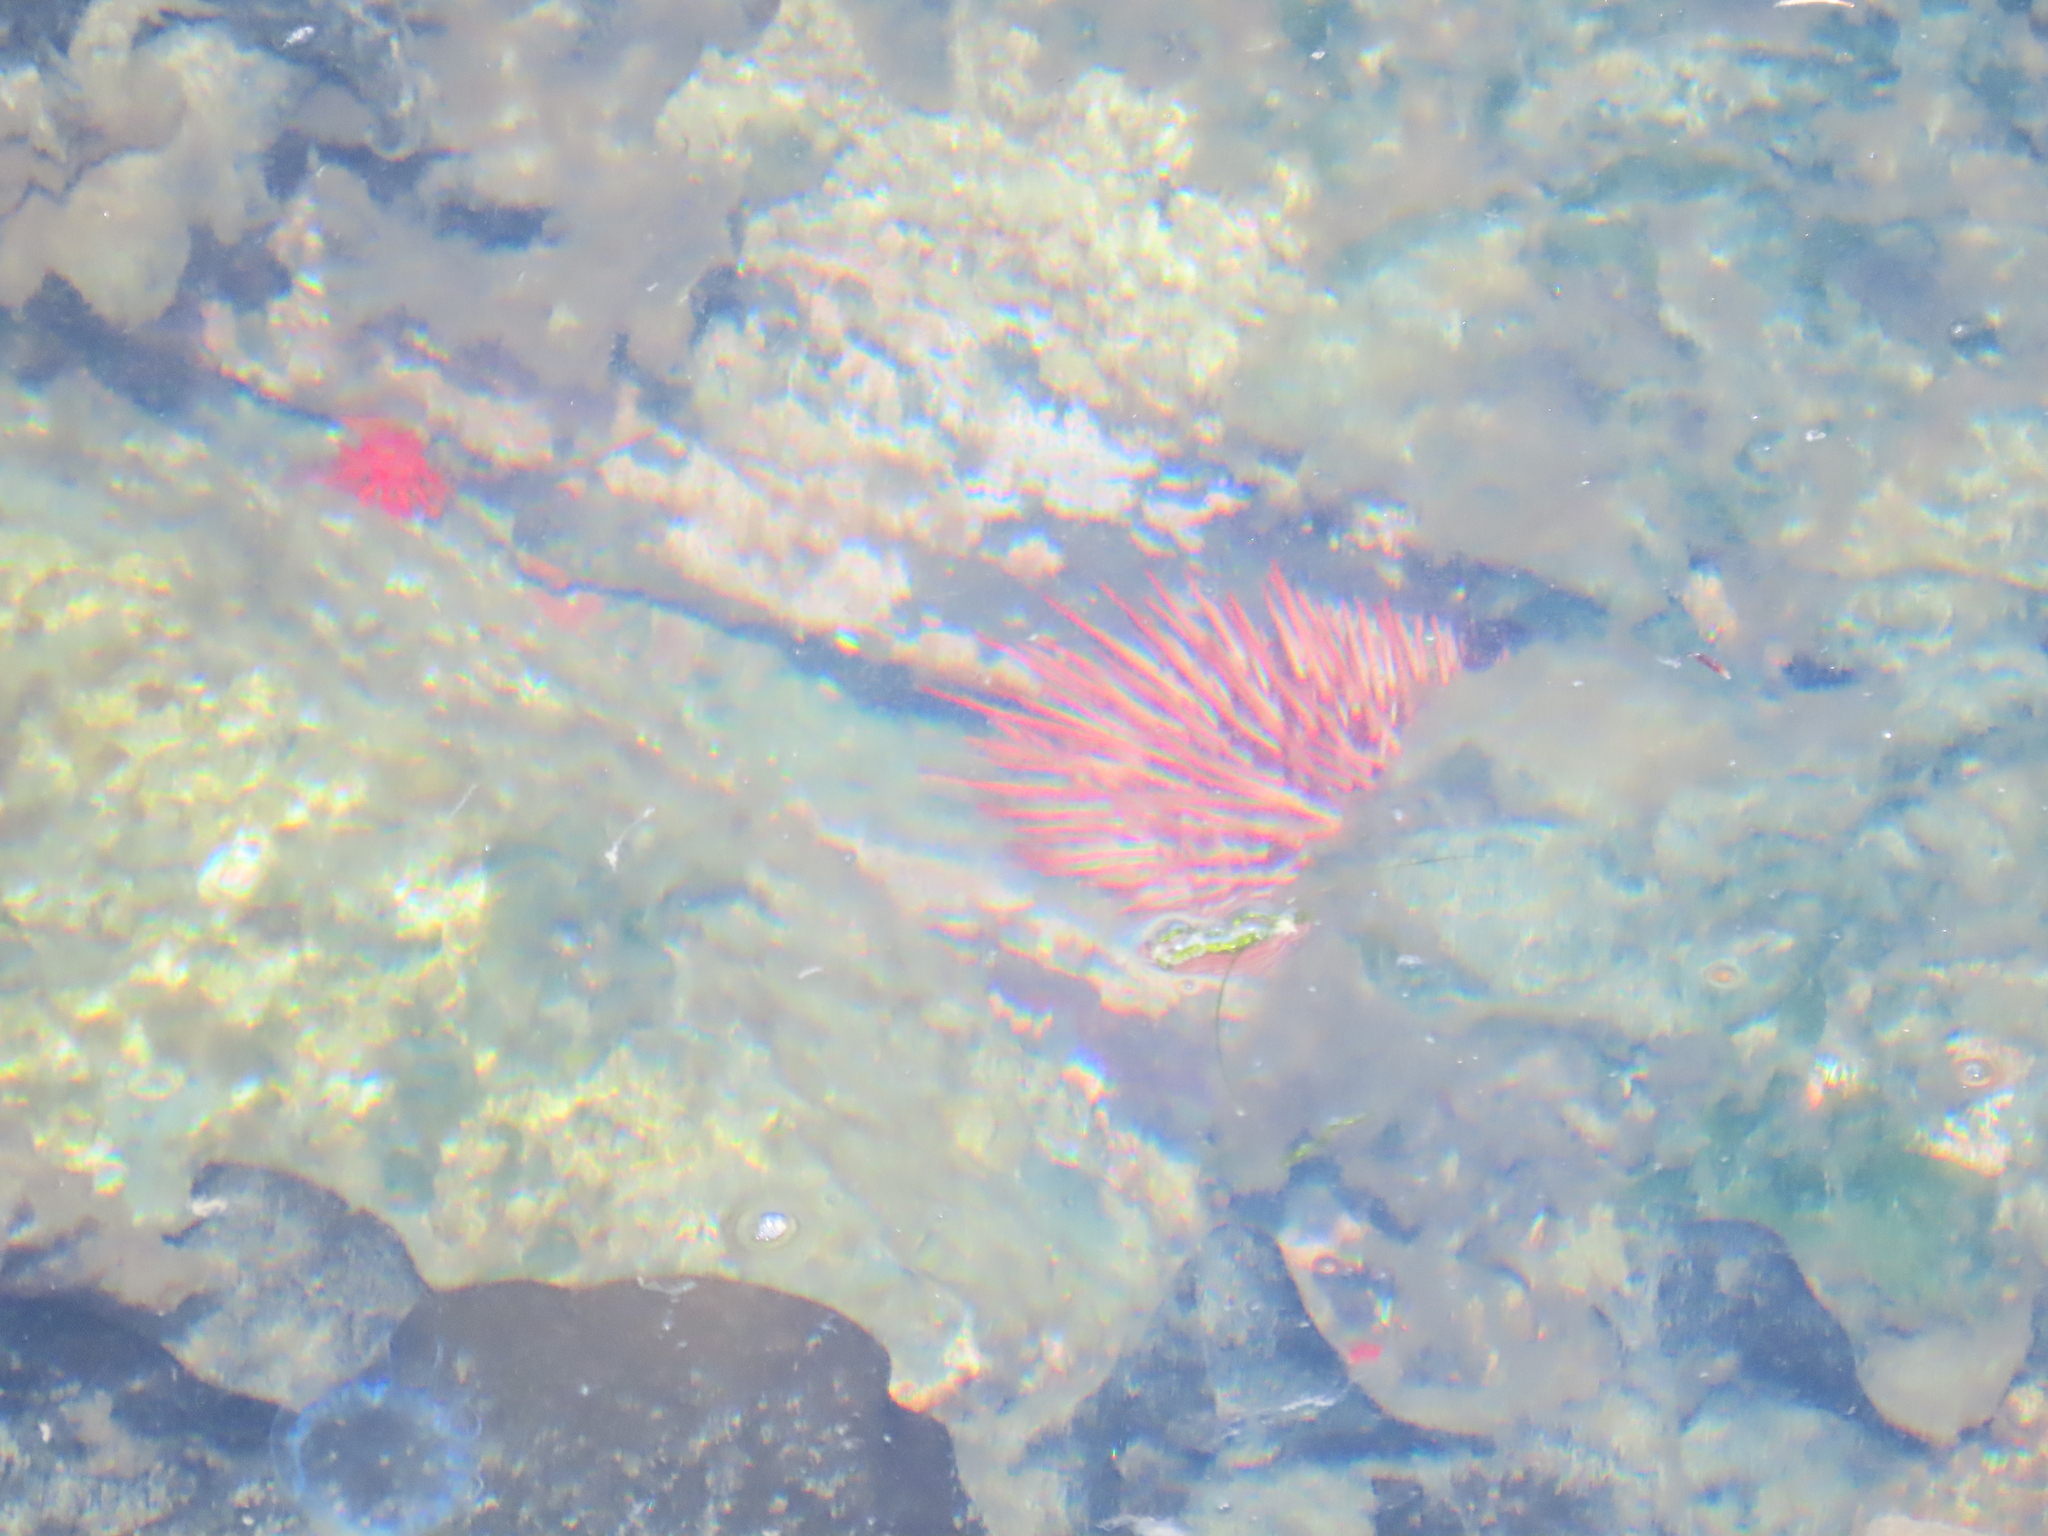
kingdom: Animalia
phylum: Echinodermata
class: Echinoidea
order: Camarodonta
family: Strongylocentrotidae
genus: Mesocentrotus
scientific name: Mesocentrotus franciscanus
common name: Red sea urchin
